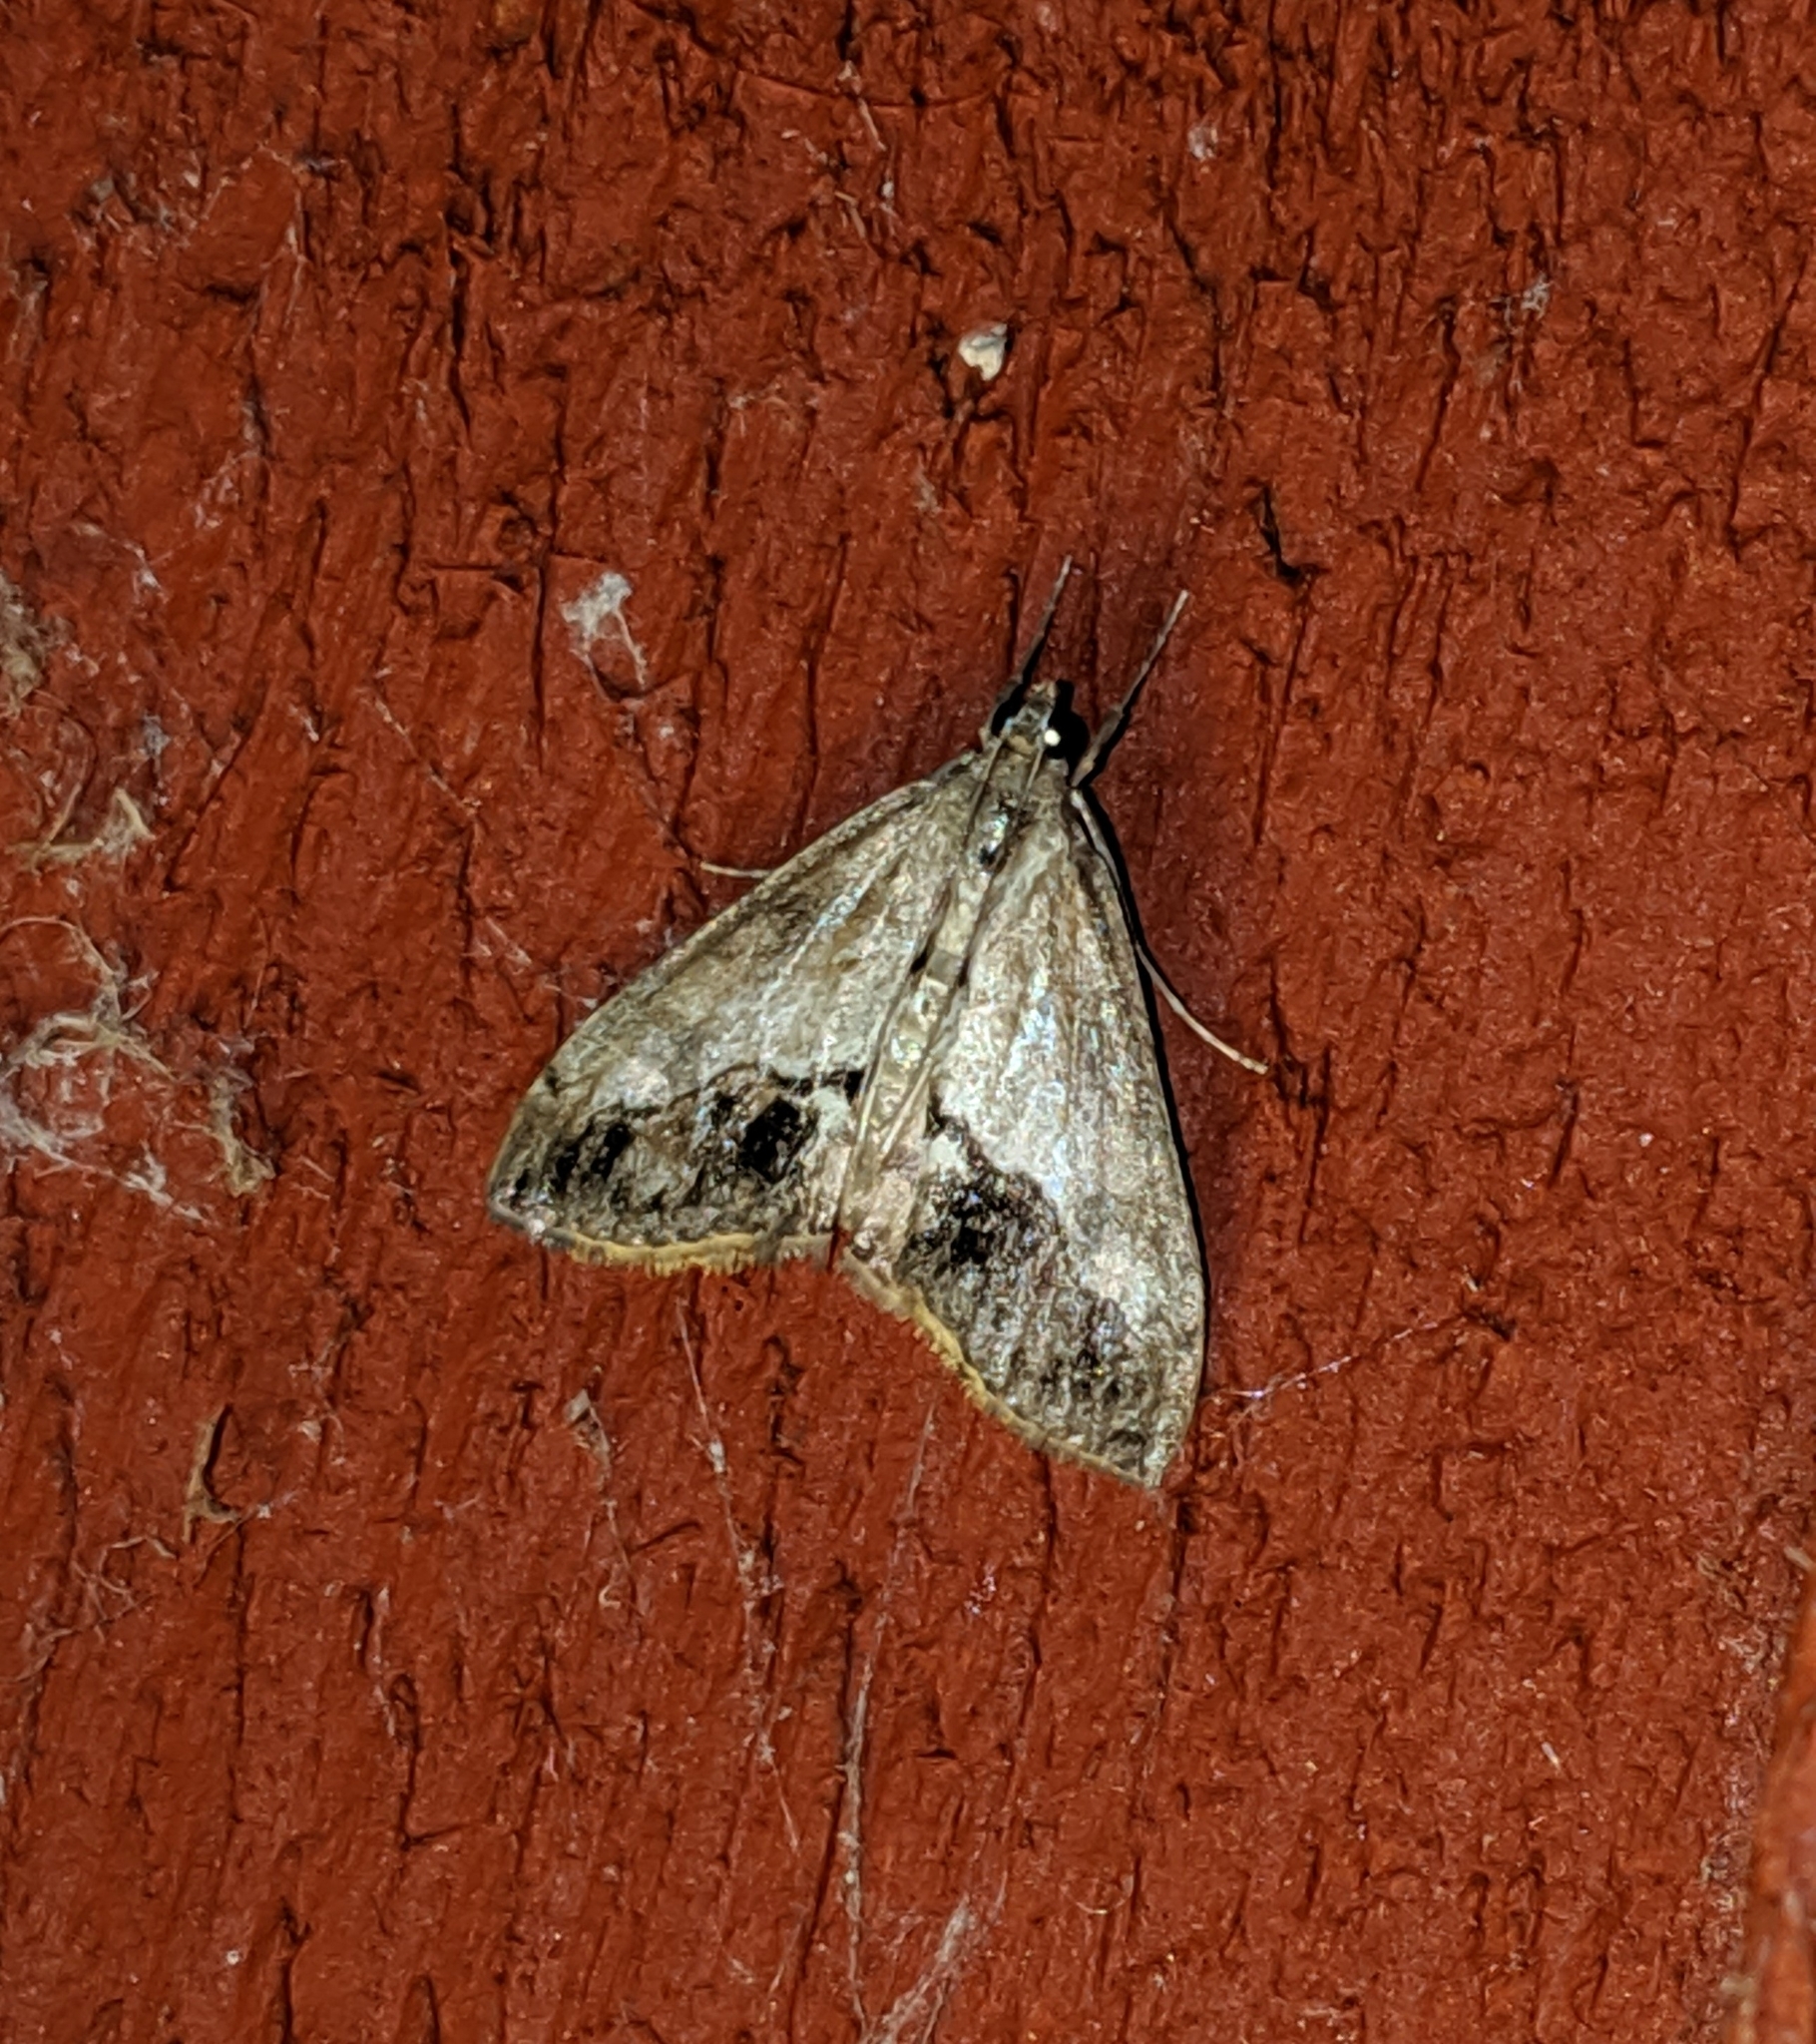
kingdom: Animalia
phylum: Arthropoda
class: Insecta
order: Lepidoptera
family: Crambidae
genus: Evergestis
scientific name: Evergestis funalis
